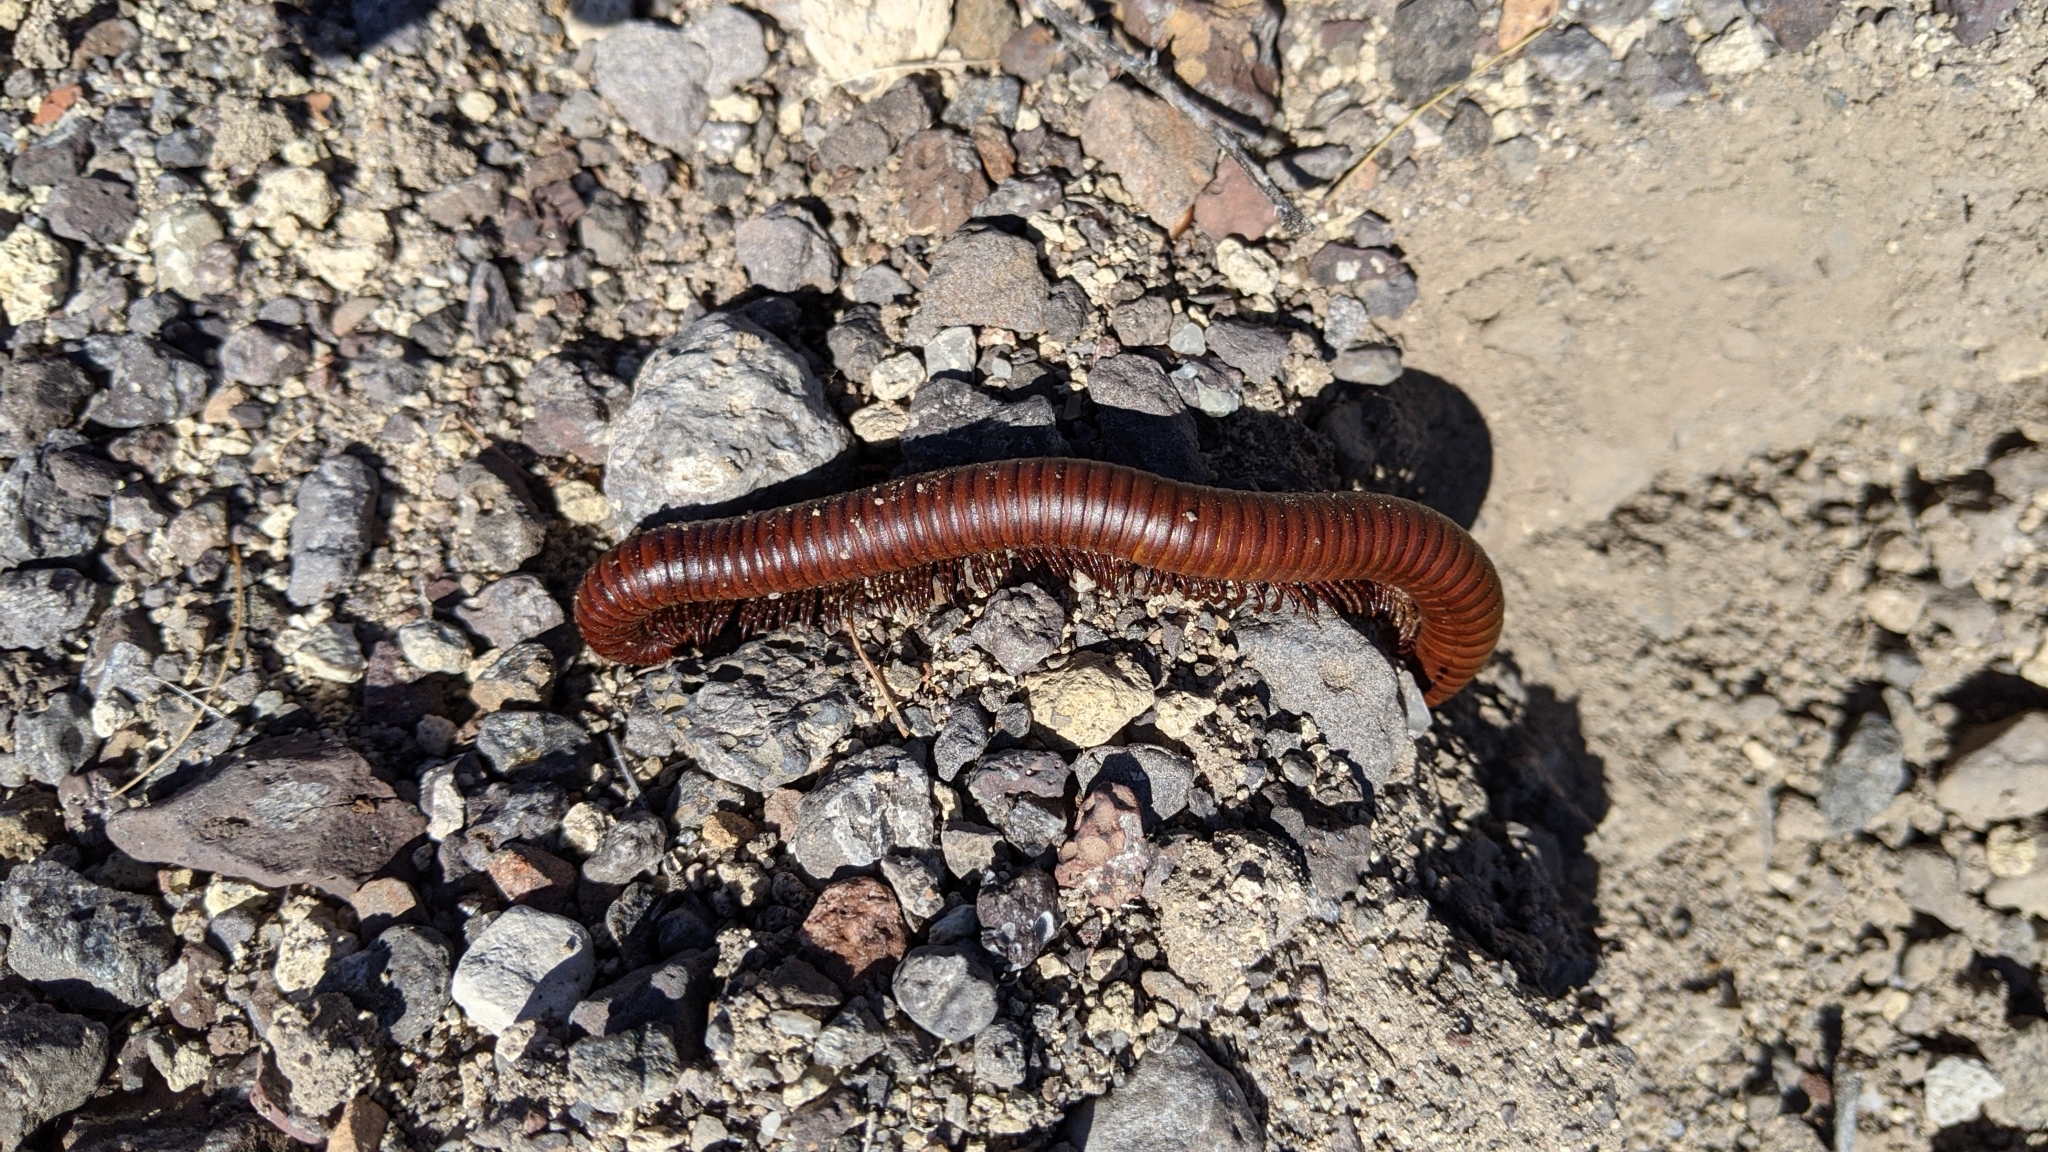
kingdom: Animalia
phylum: Arthropoda
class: Diplopoda
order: Spirostreptida
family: Spirostreptidae
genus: Orthoporus
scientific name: Orthoporus ornatus
